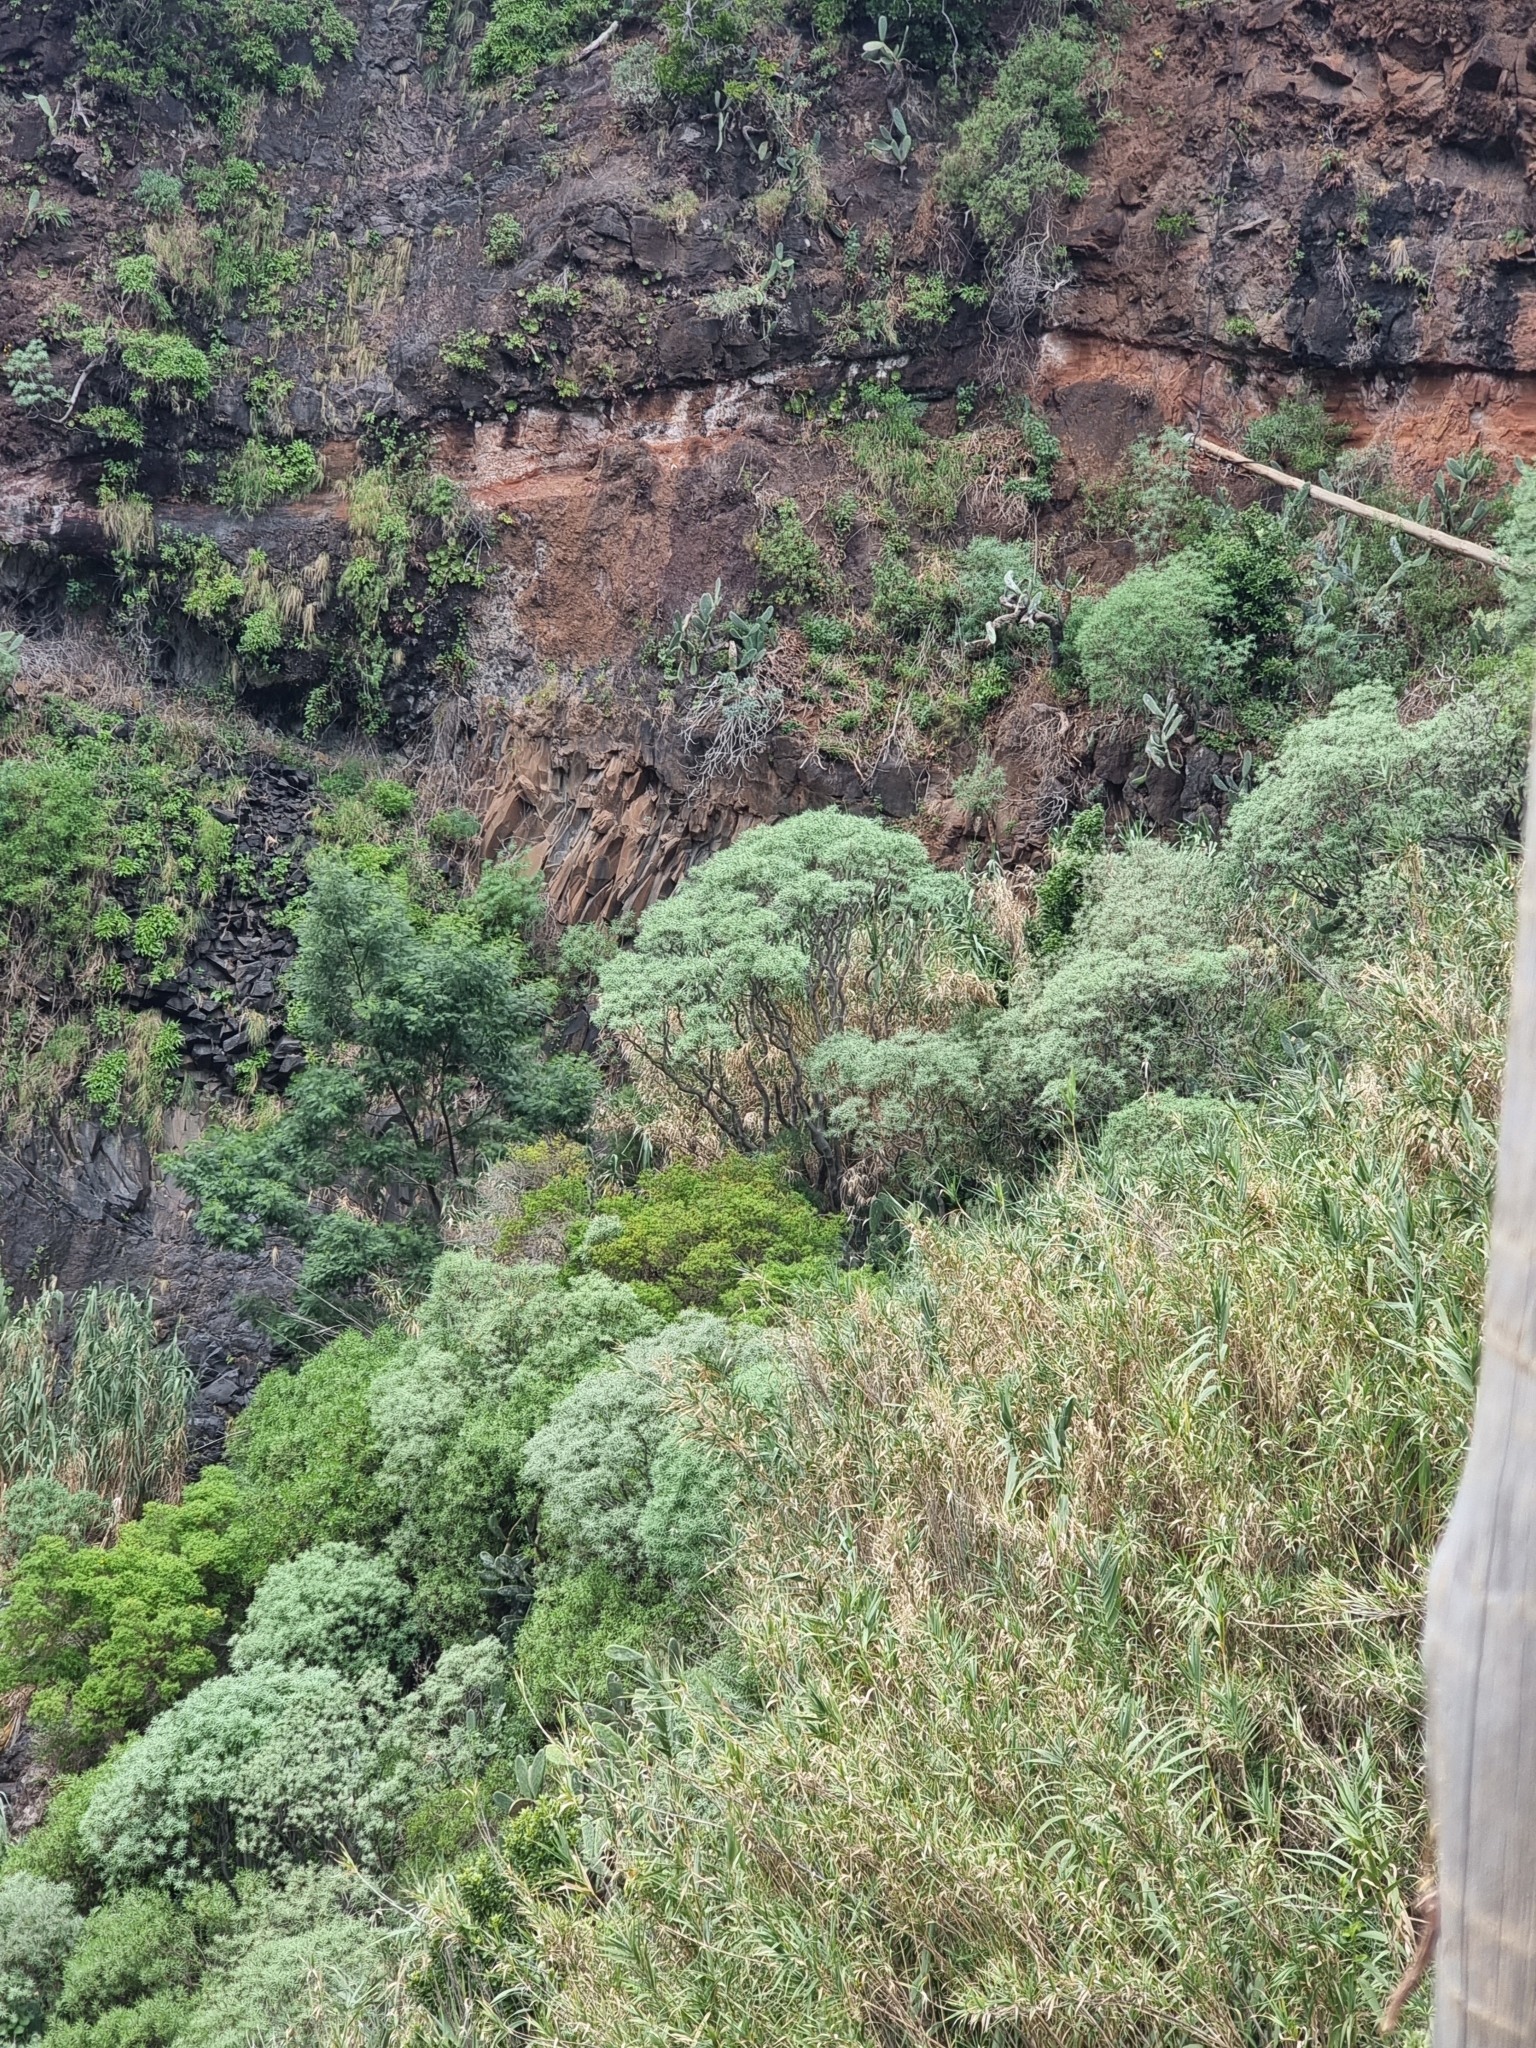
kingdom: Plantae
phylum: Tracheophyta
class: Magnoliopsida
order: Malpighiales
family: Euphorbiaceae
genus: Euphorbia
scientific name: Euphorbia piscatoria
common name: Fish-stunning spurge
